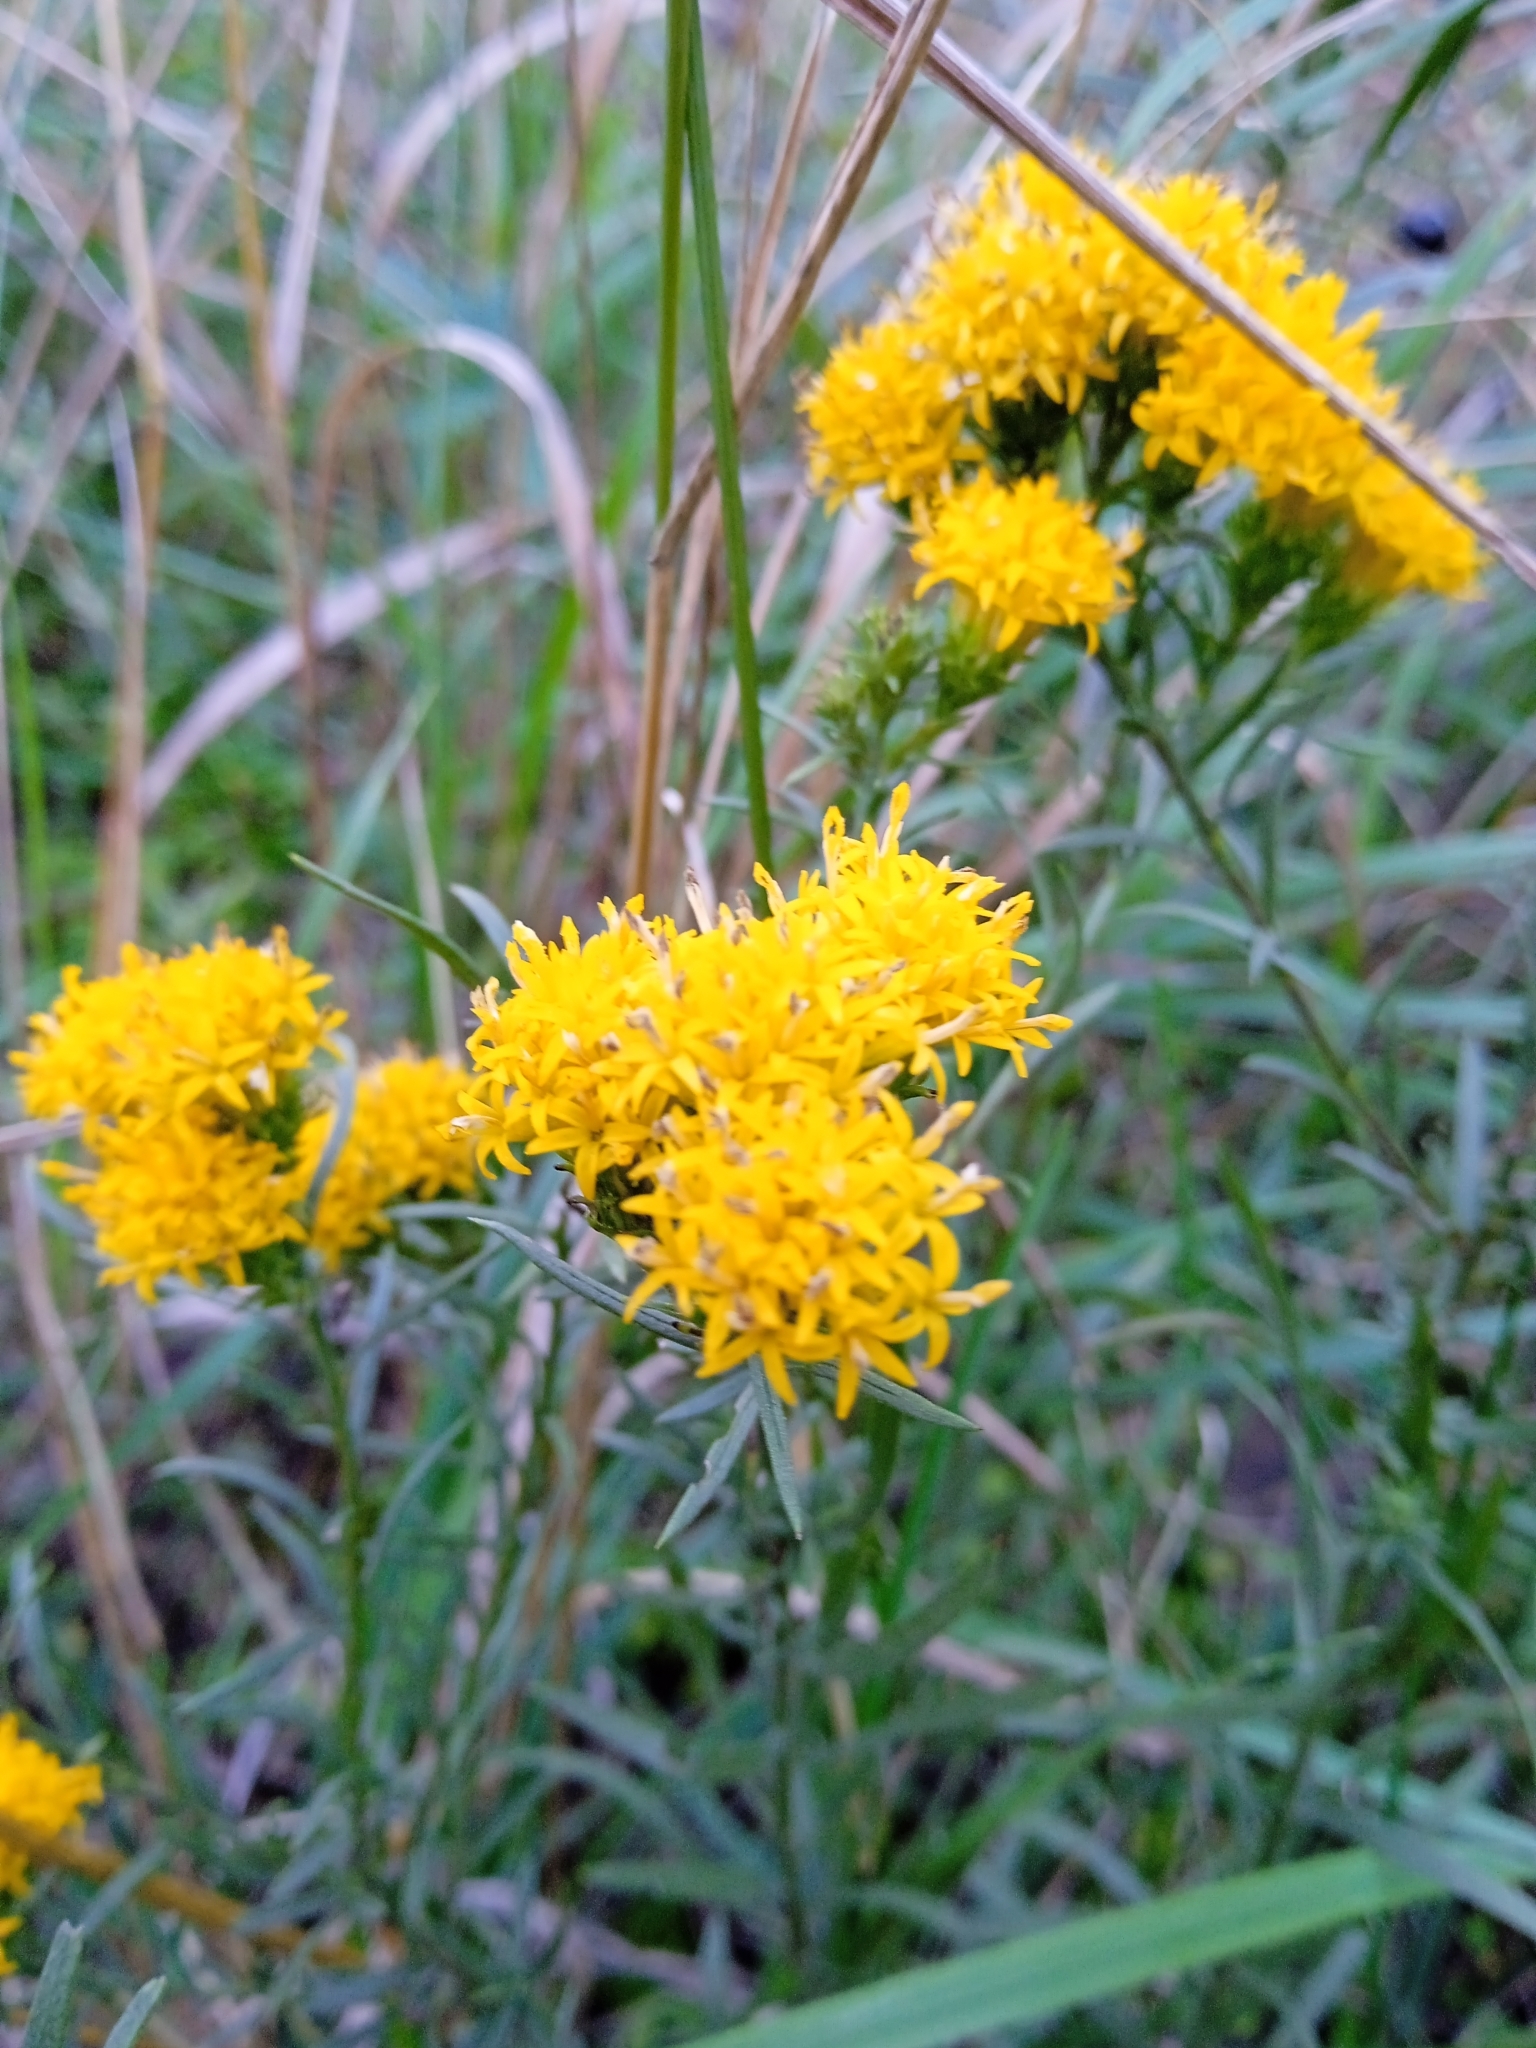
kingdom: Plantae
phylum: Tracheophyta
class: Magnoliopsida
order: Asterales
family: Asteraceae
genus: Galatella
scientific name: Galatella linosyris
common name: Goldilocks aster
